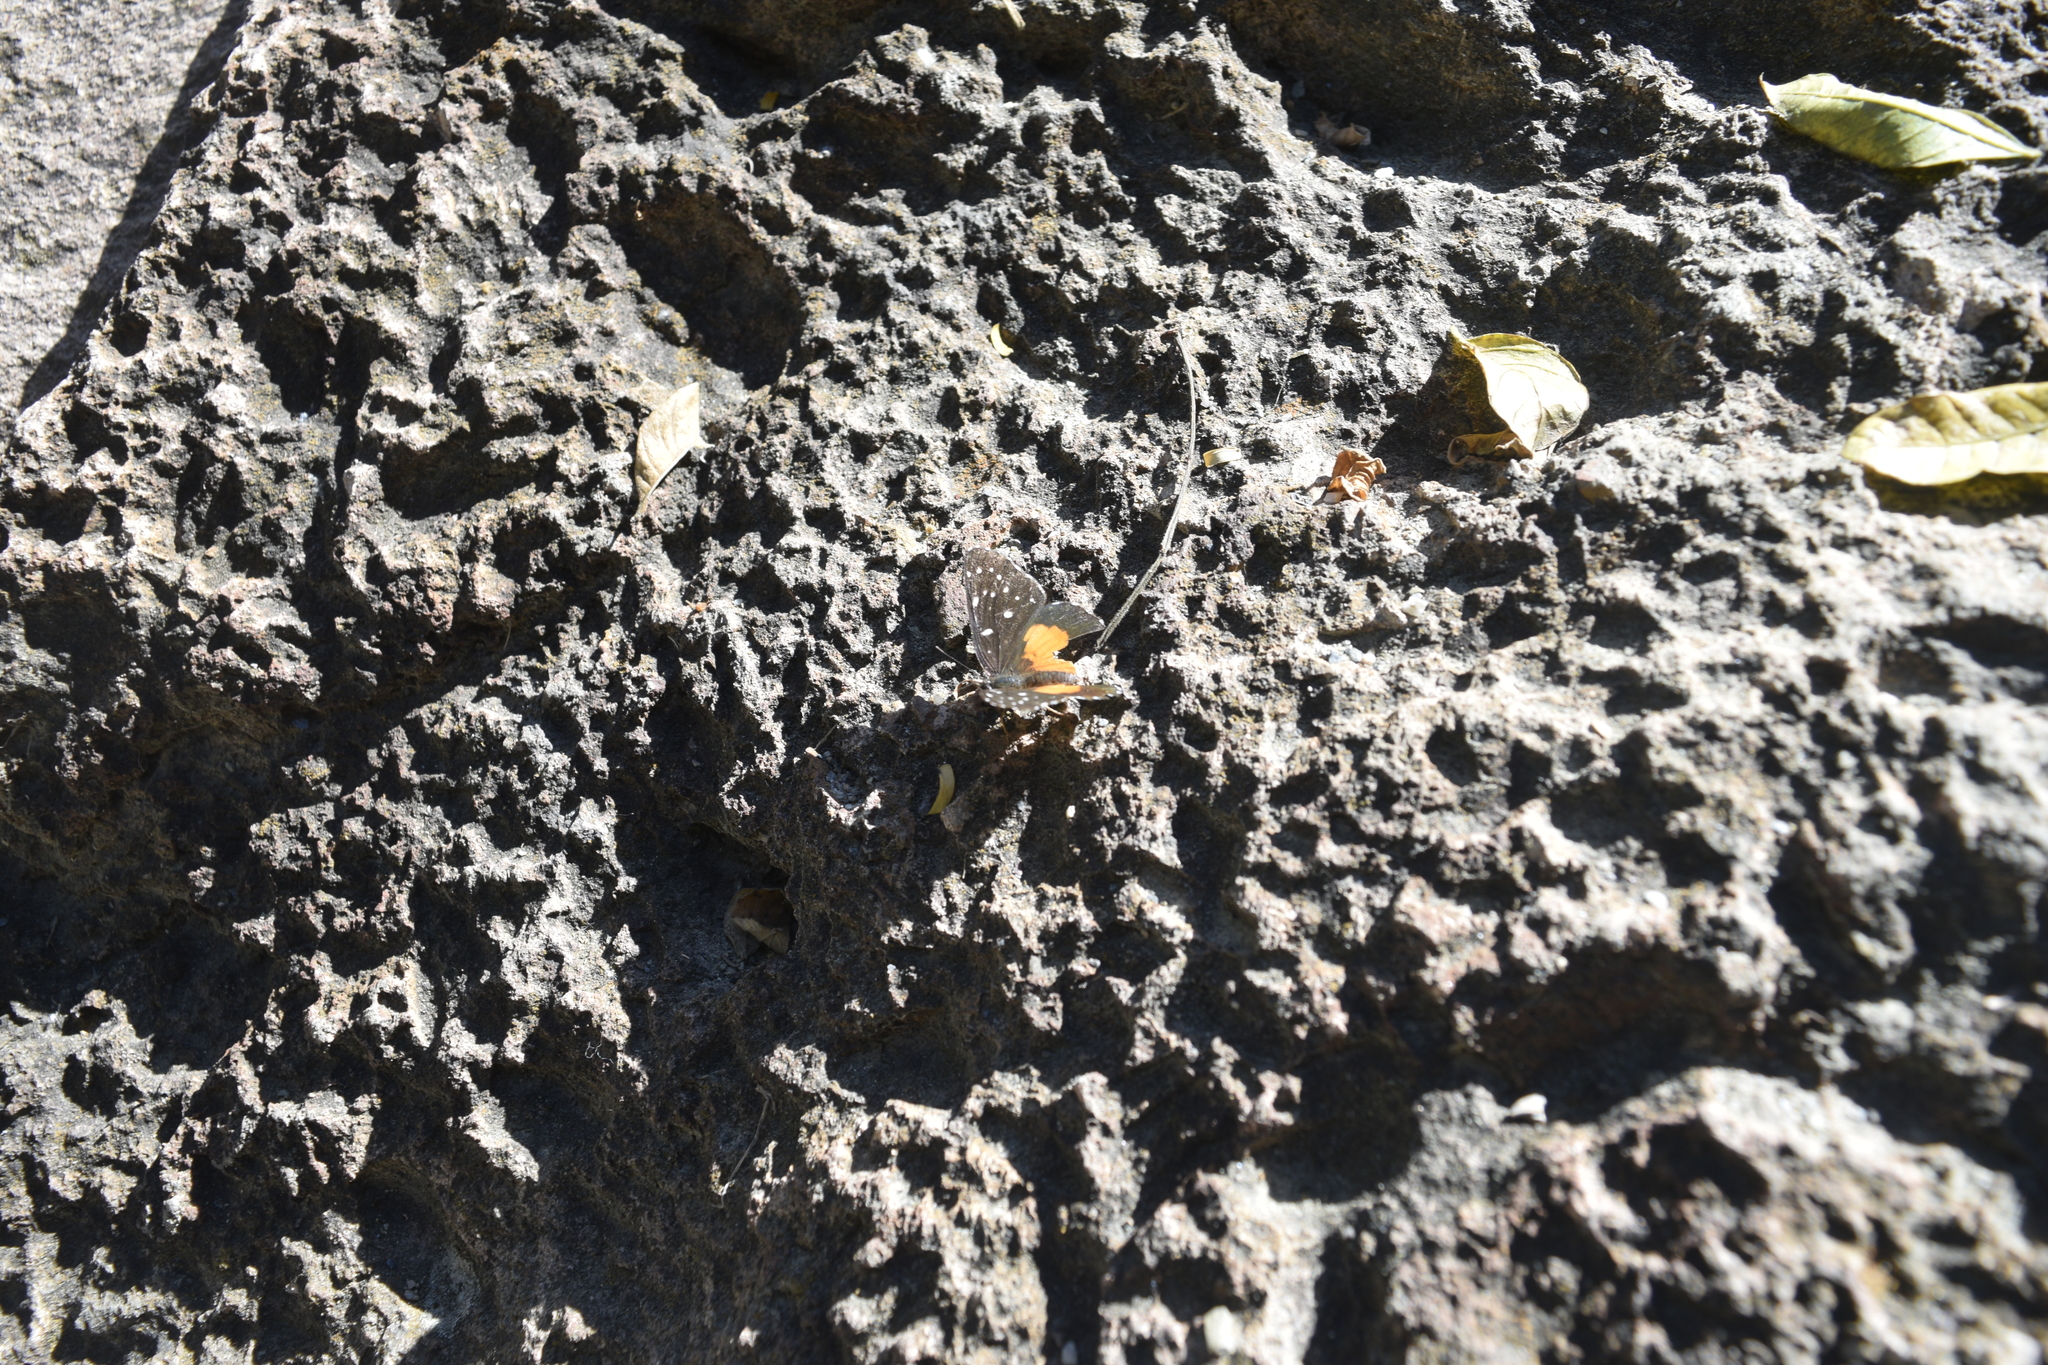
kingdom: Animalia
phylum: Arthropoda
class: Insecta
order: Lepidoptera
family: Nymphalidae
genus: Chlosyne
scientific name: Chlosyne lacinia
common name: Bordered patch
